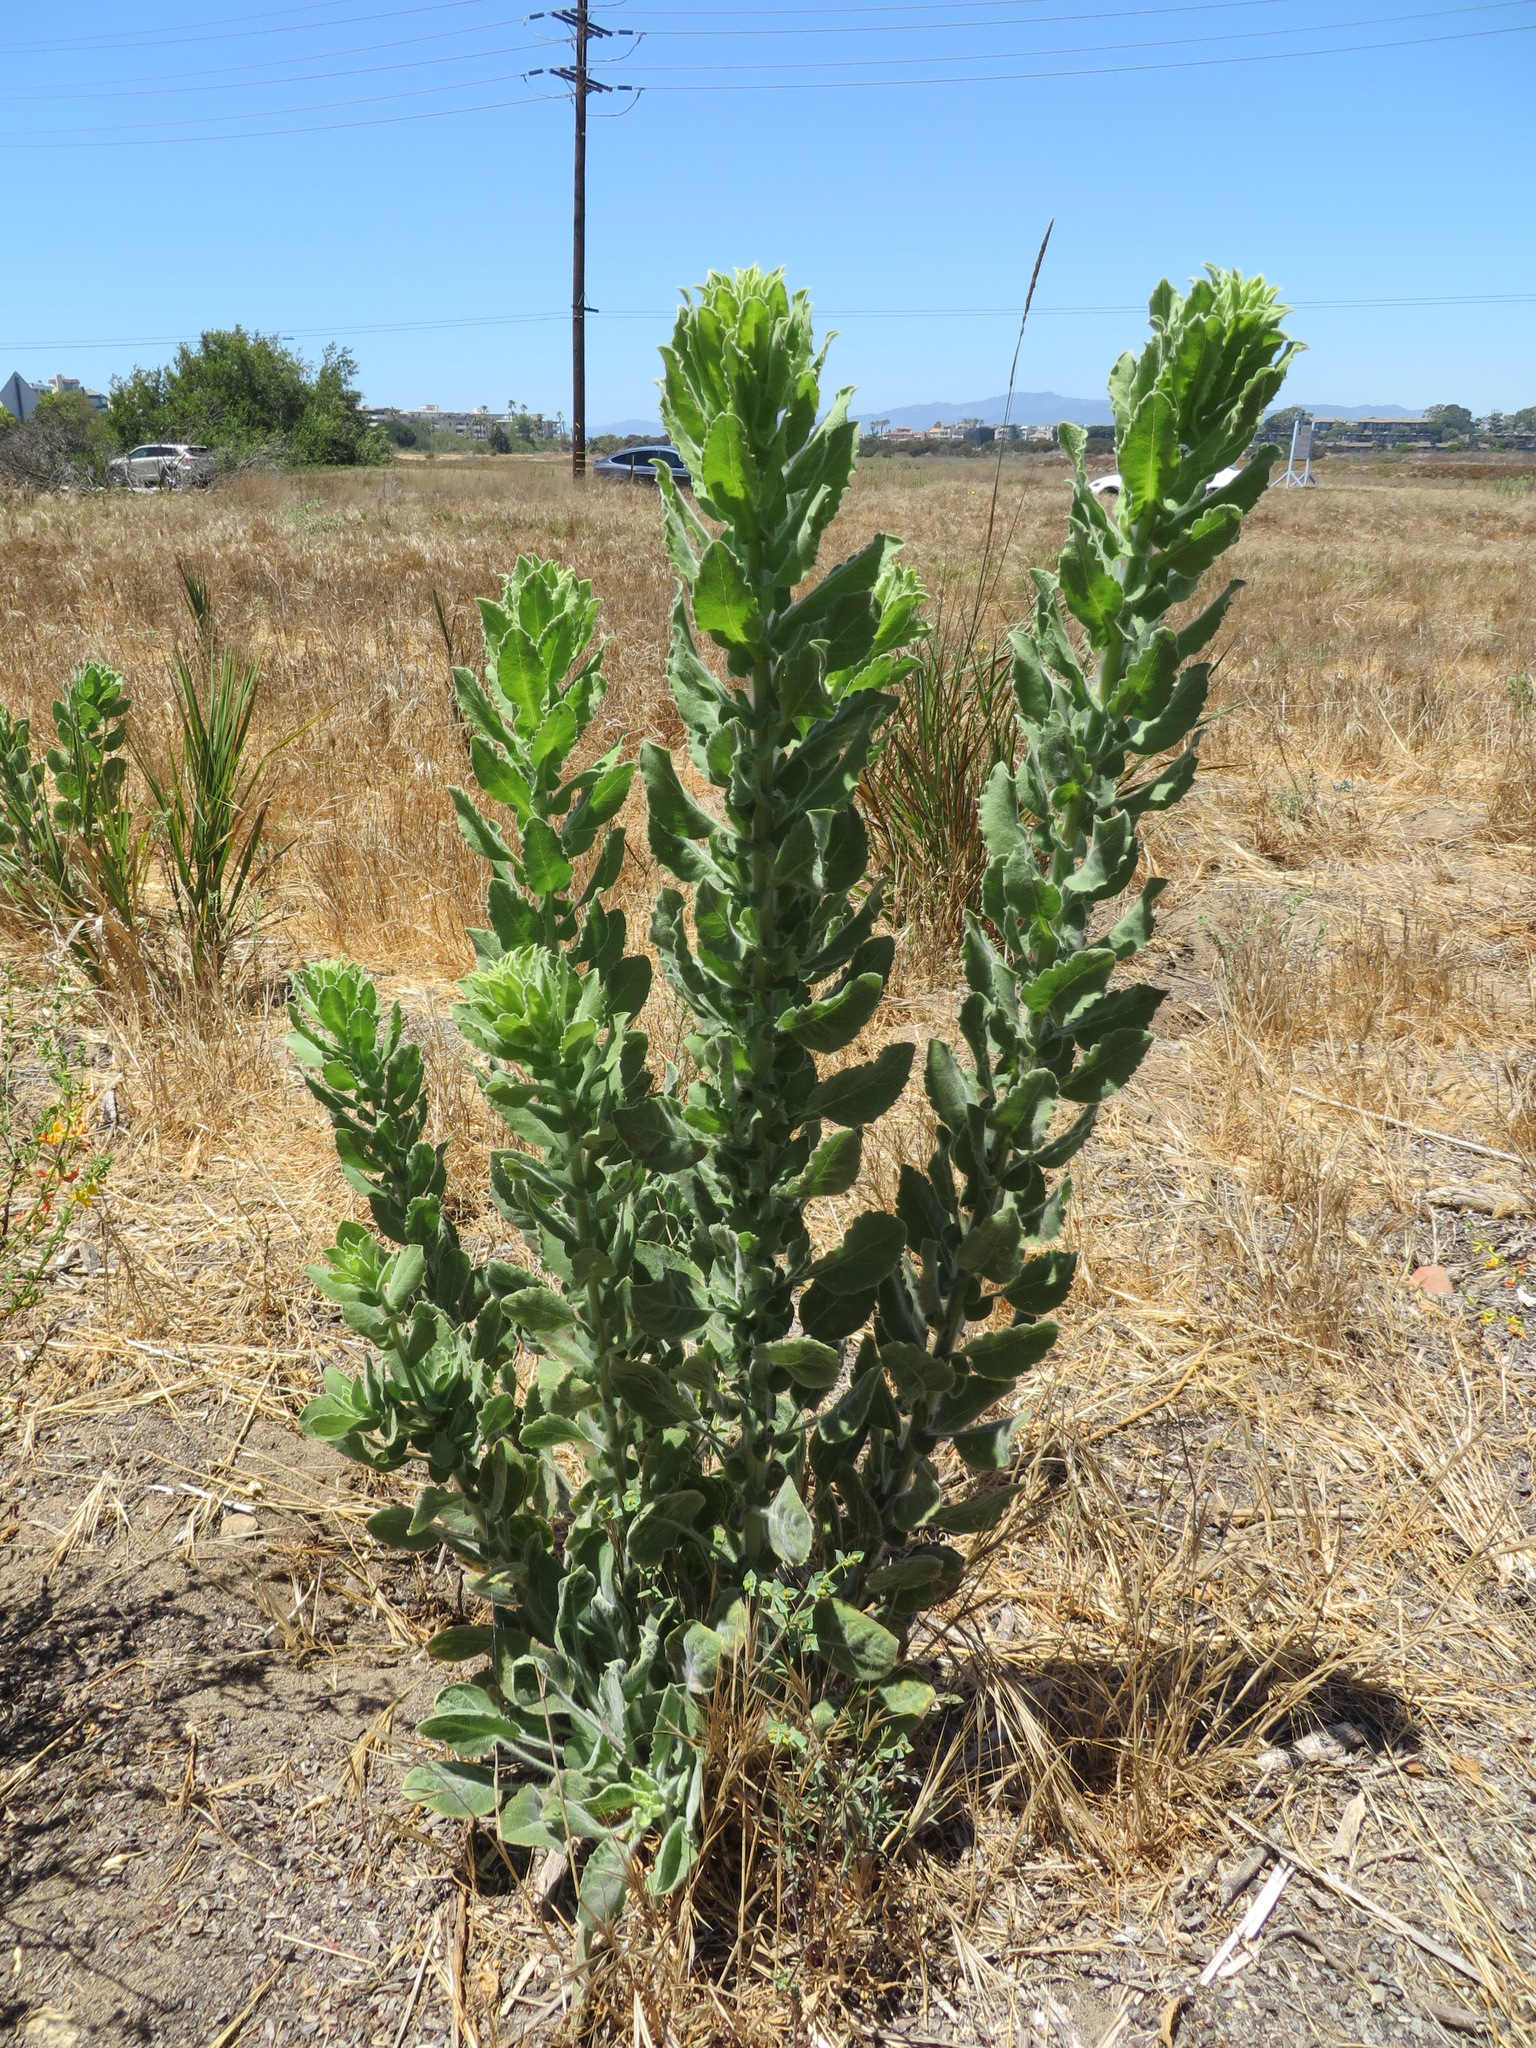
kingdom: Plantae
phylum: Tracheophyta
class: Magnoliopsida
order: Asterales
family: Asteraceae
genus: Heterotheca
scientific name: Heterotheca grandiflora
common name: Telegraphweed
